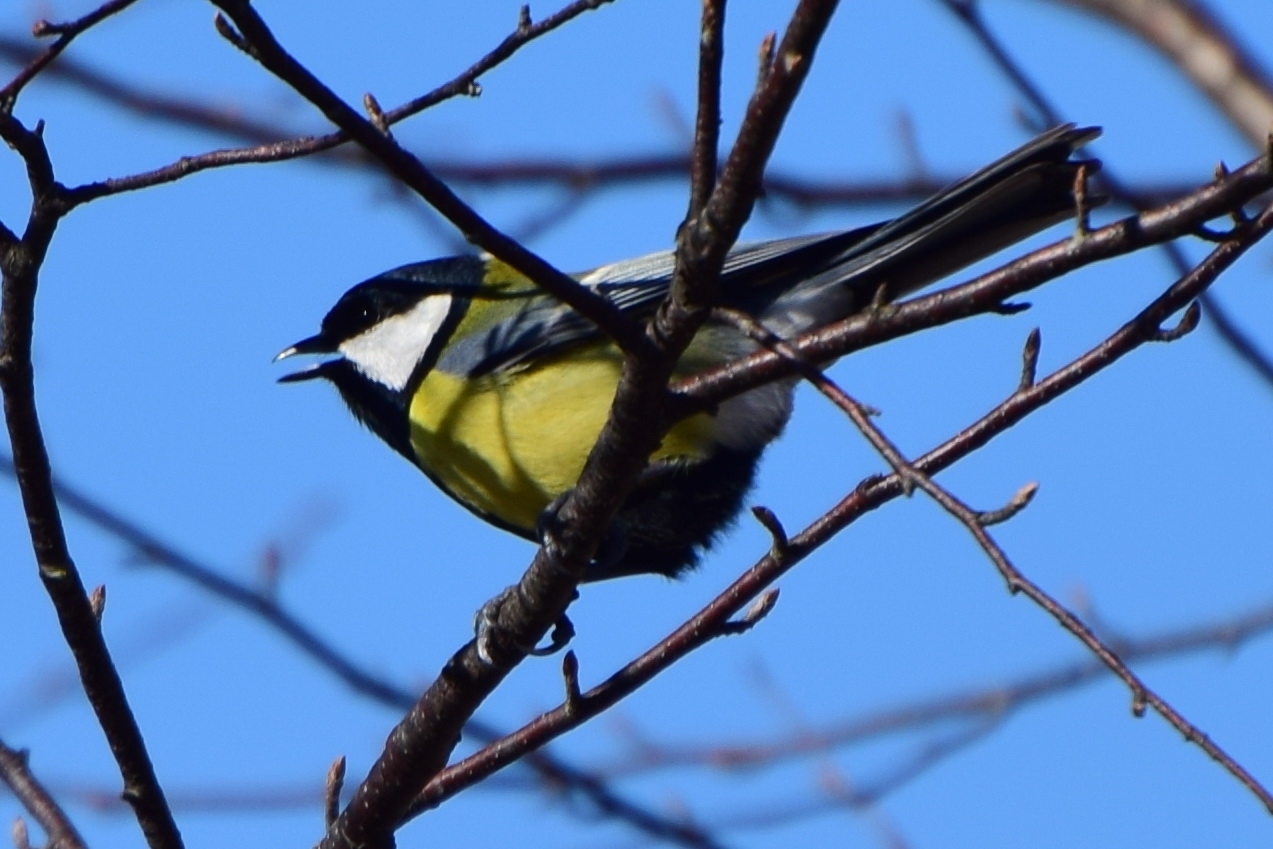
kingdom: Animalia
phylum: Chordata
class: Aves
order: Passeriformes
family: Paridae
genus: Parus
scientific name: Parus major
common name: Great tit
